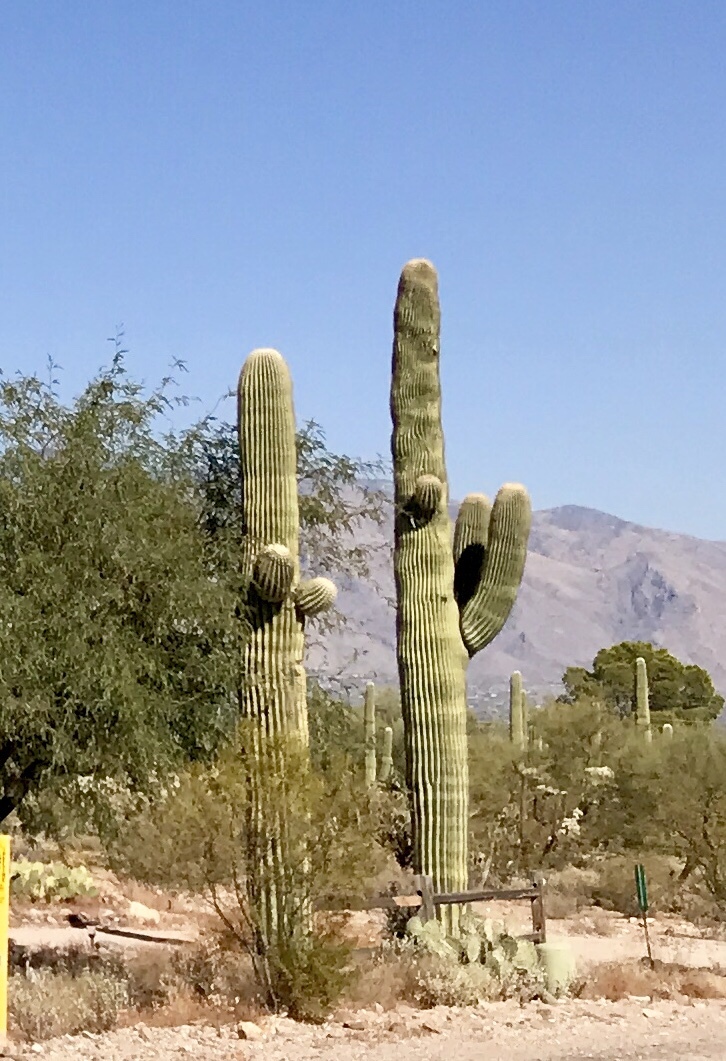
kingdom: Plantae
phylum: Tracheophyta
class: Magnoliopsida
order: Caryophyllales
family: Cactaceae
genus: Carnegiea
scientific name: Carnegiea gigantea
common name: Saguaro
